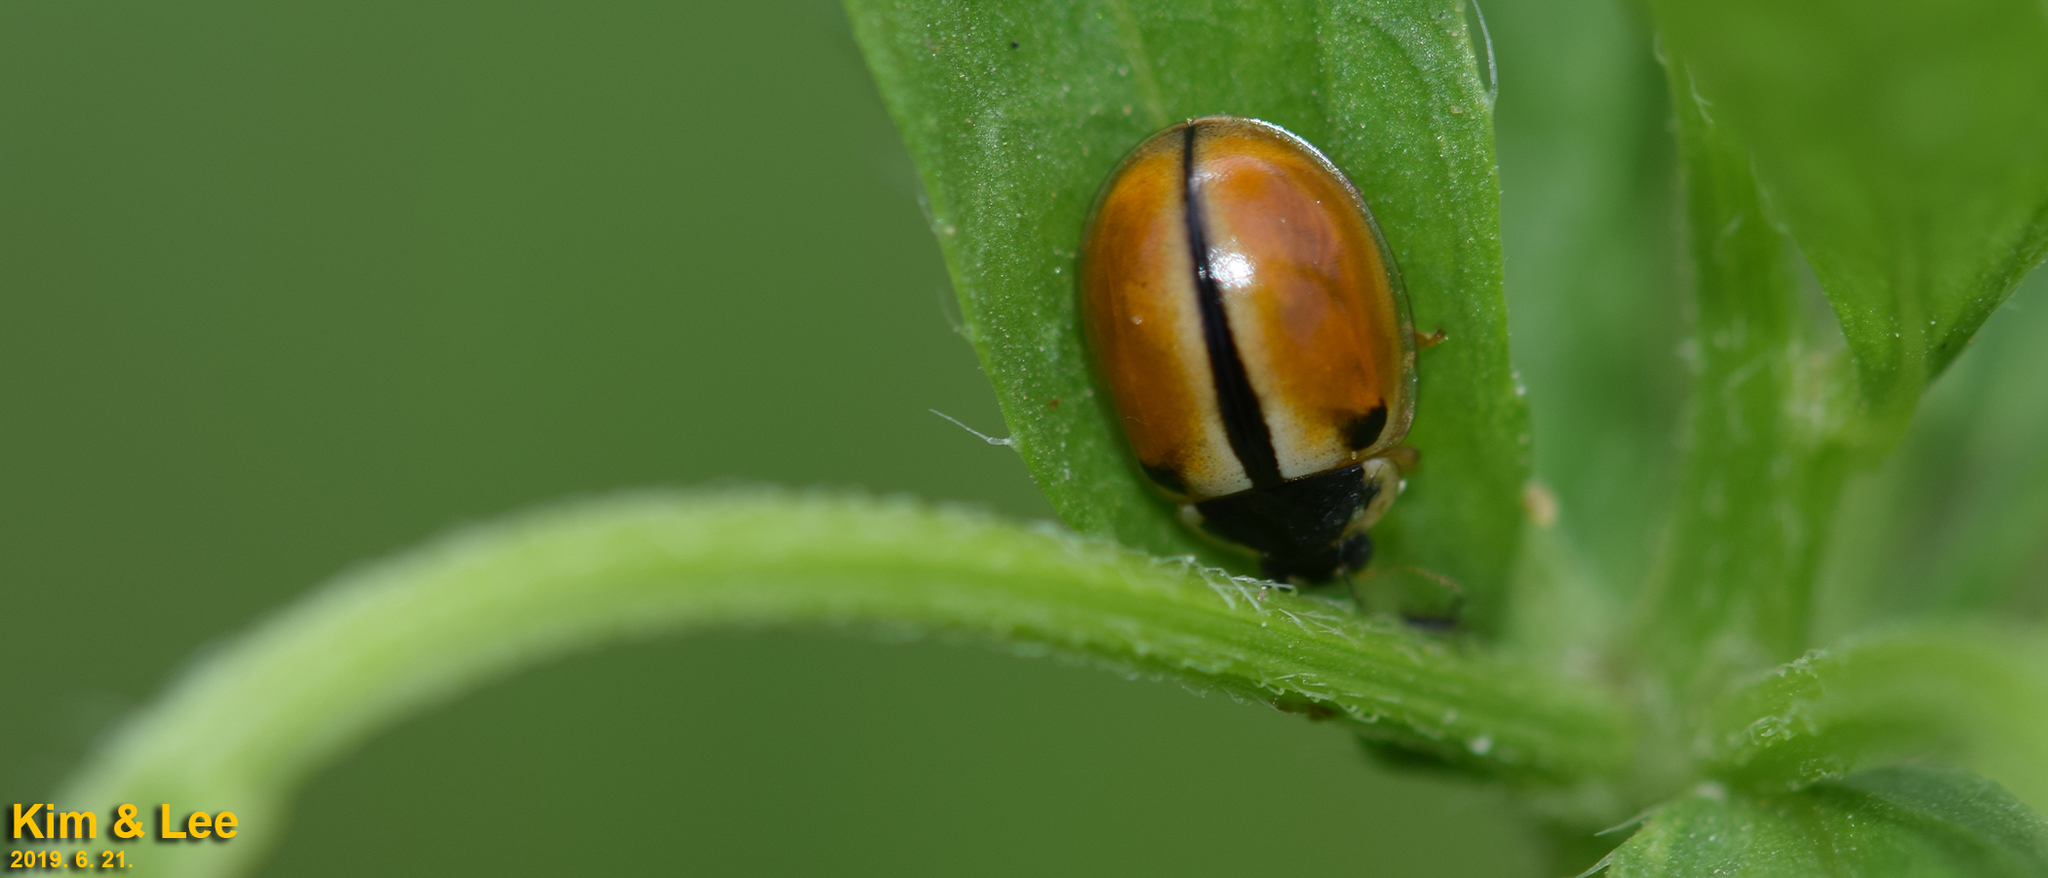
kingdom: Animalia
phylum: Arthropoda
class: Insecta
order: Coleoptera
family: Coccinellidae
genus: Propylea
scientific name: Propylea japonica
